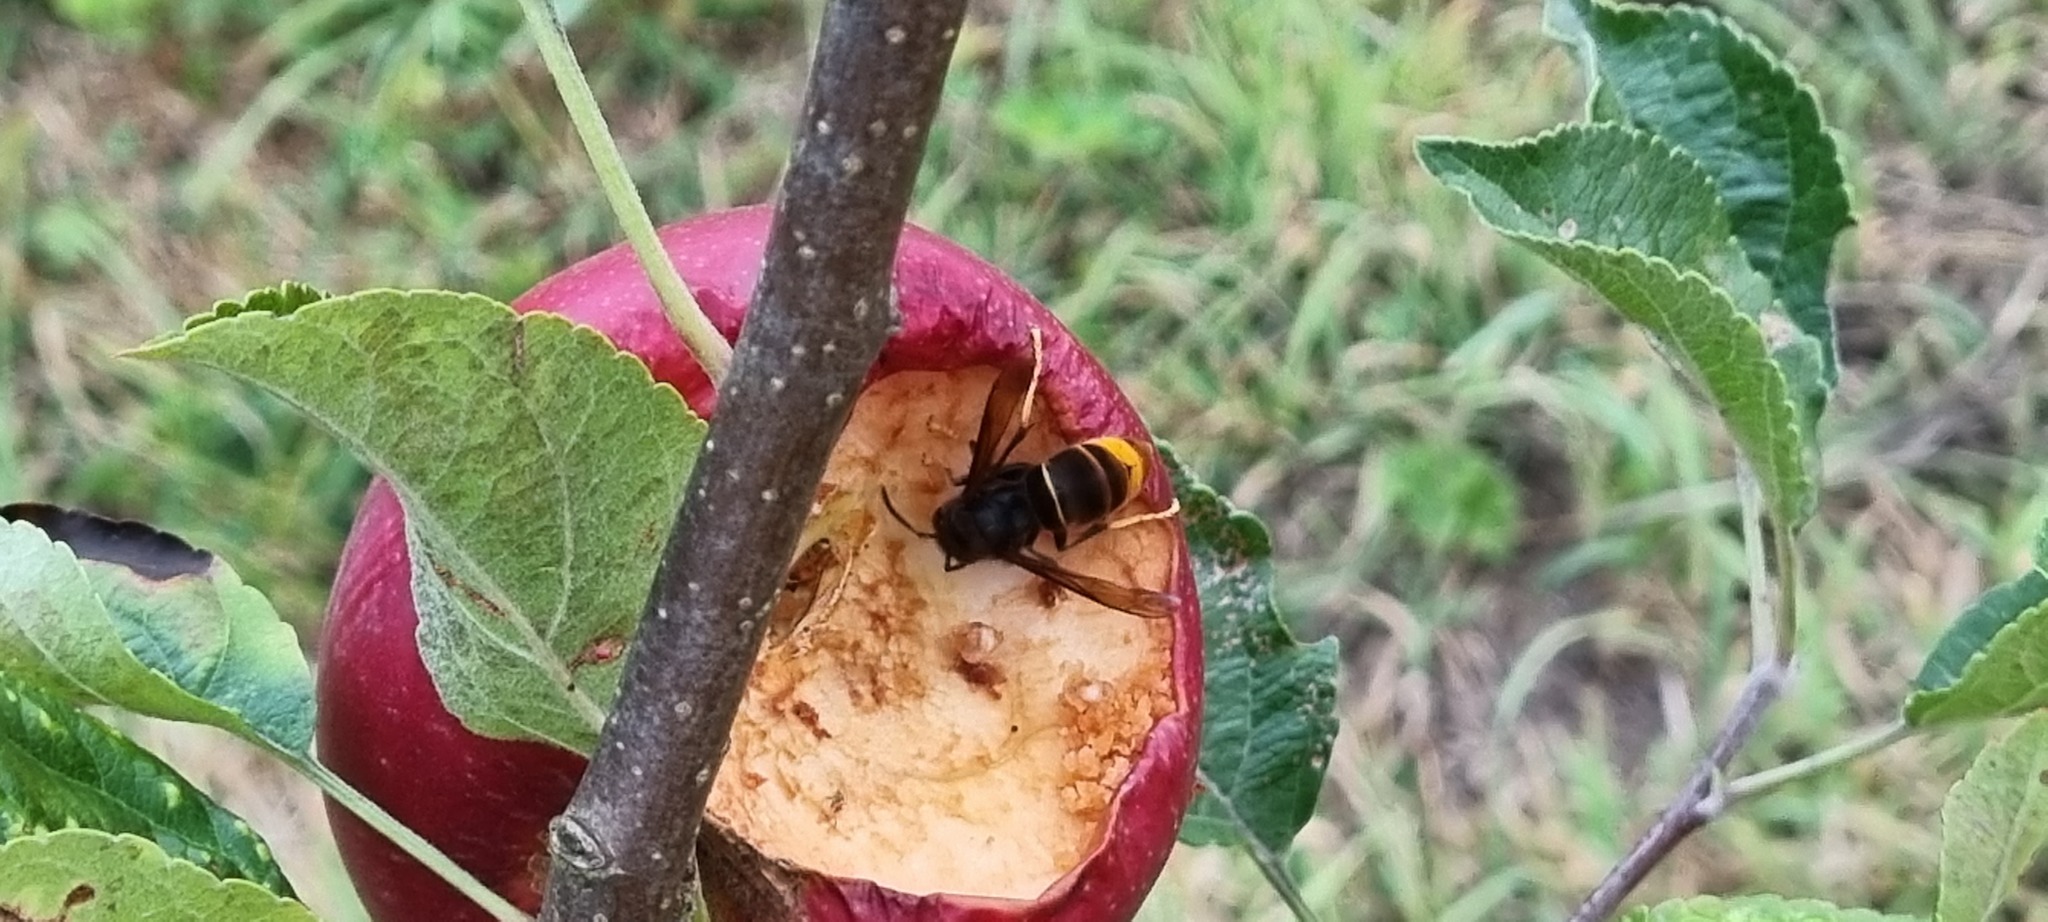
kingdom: Animalia
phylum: Arthropoda
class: Insecta
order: Hymenoptera
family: Vespidae
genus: Vespa
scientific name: Vespa velutina
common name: Asian hornet
